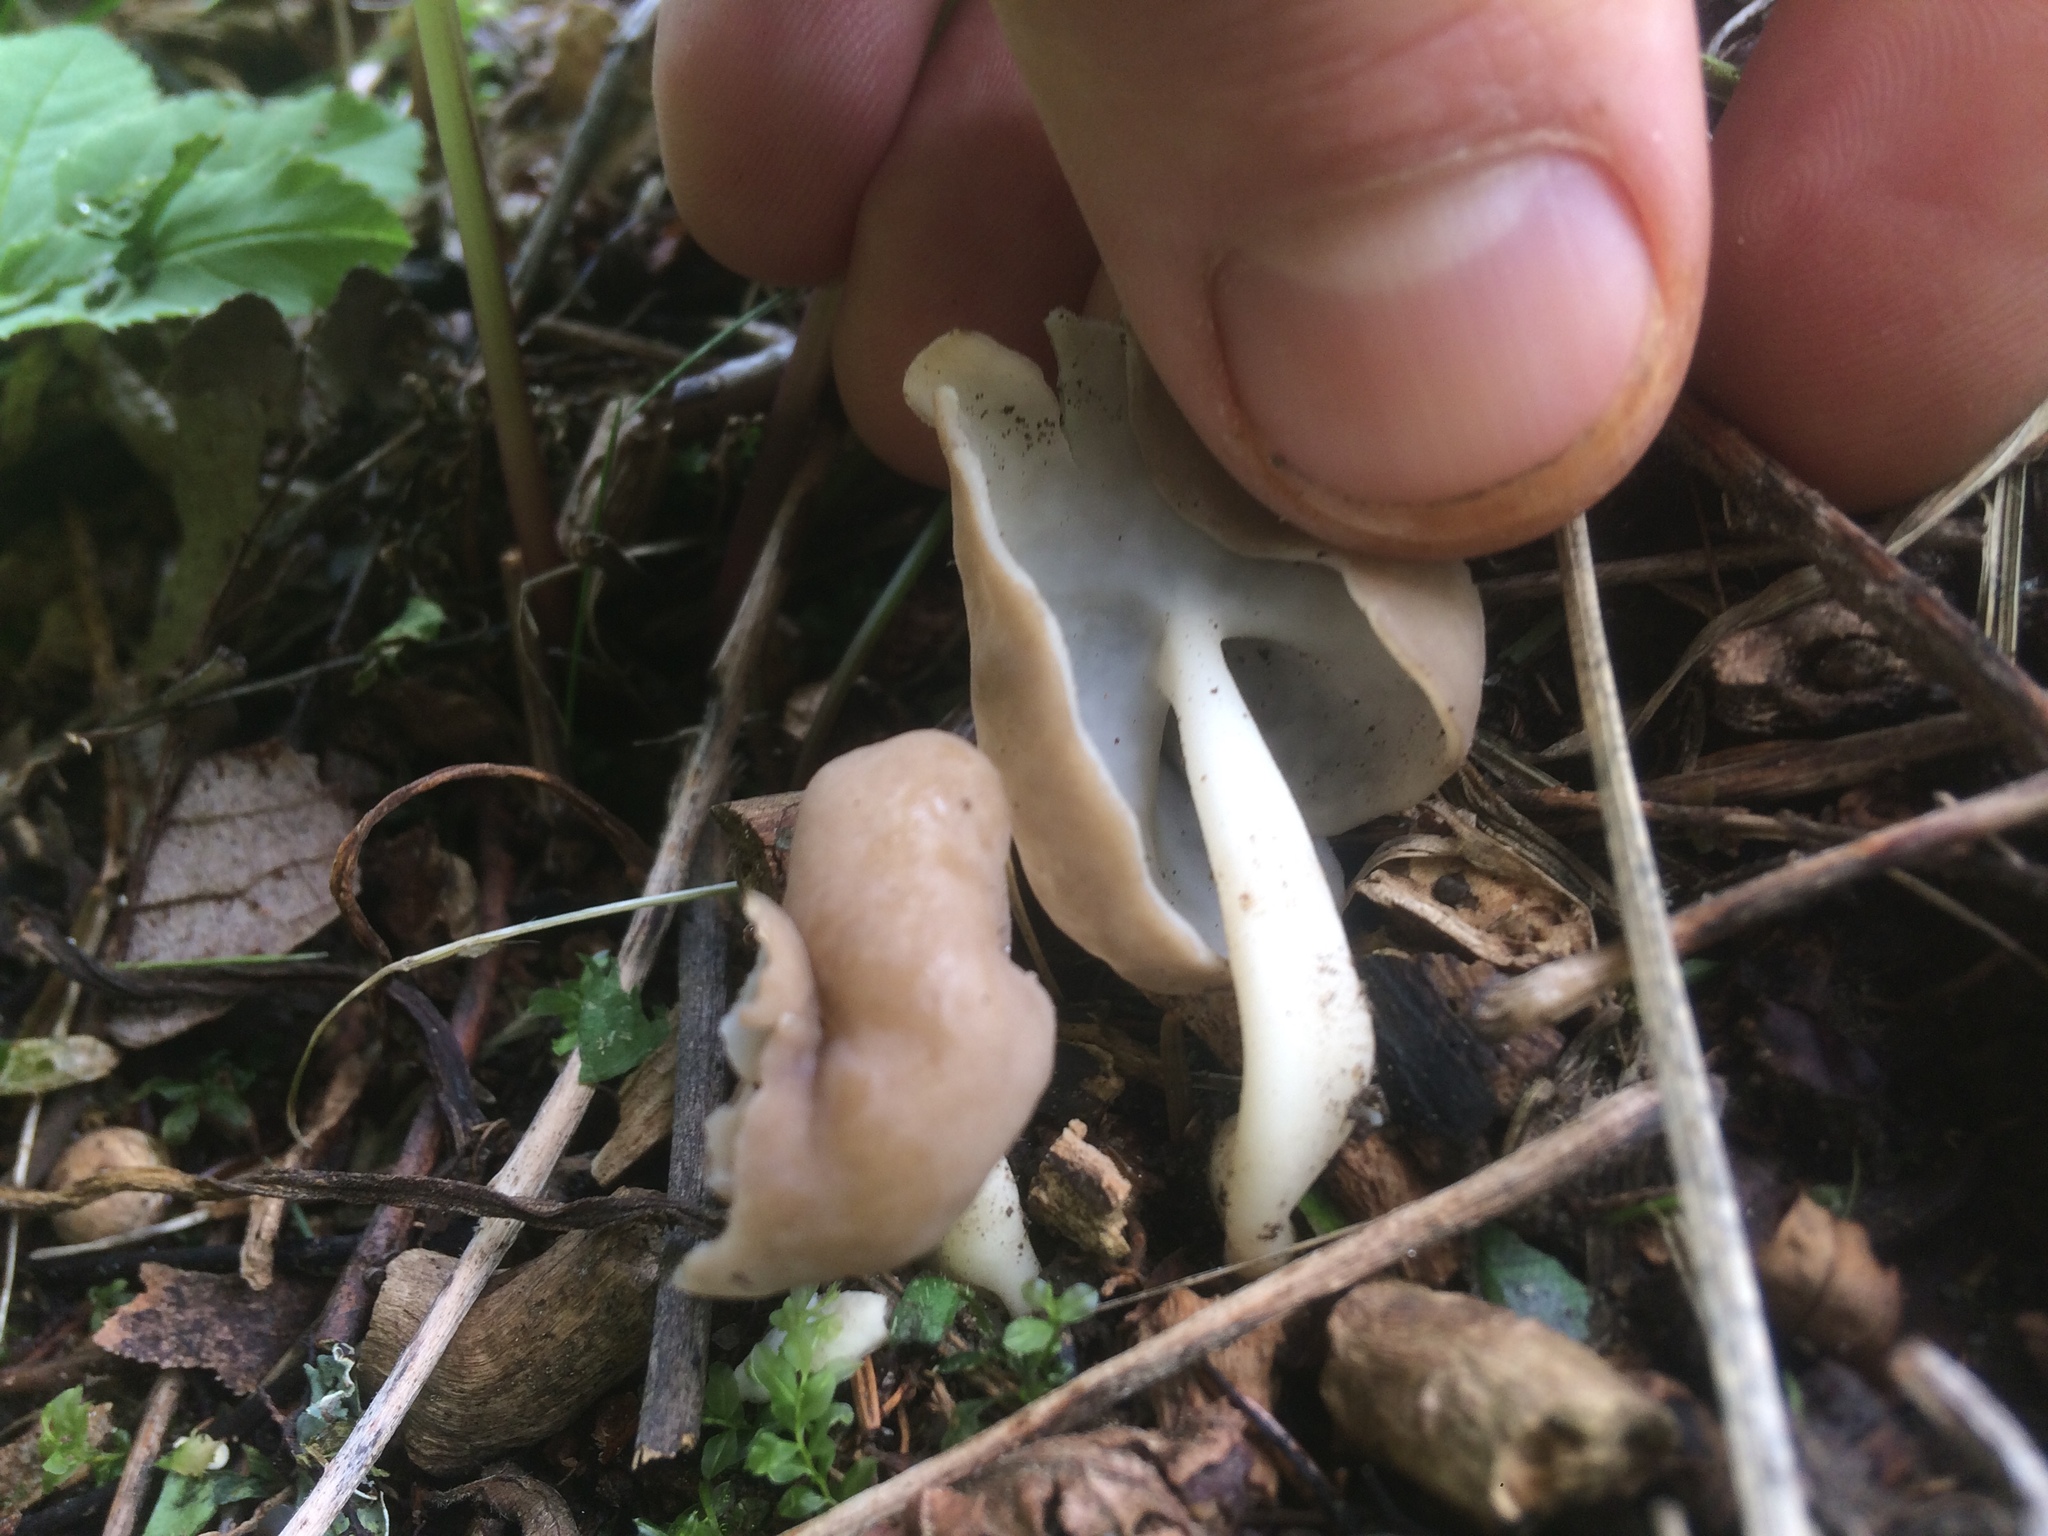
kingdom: Fungi
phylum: Ascomycota
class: Pezizomycetes
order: Pezizales
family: Helvellaceae
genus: Helvella
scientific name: Helvella elastica
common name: Elastic saddle
